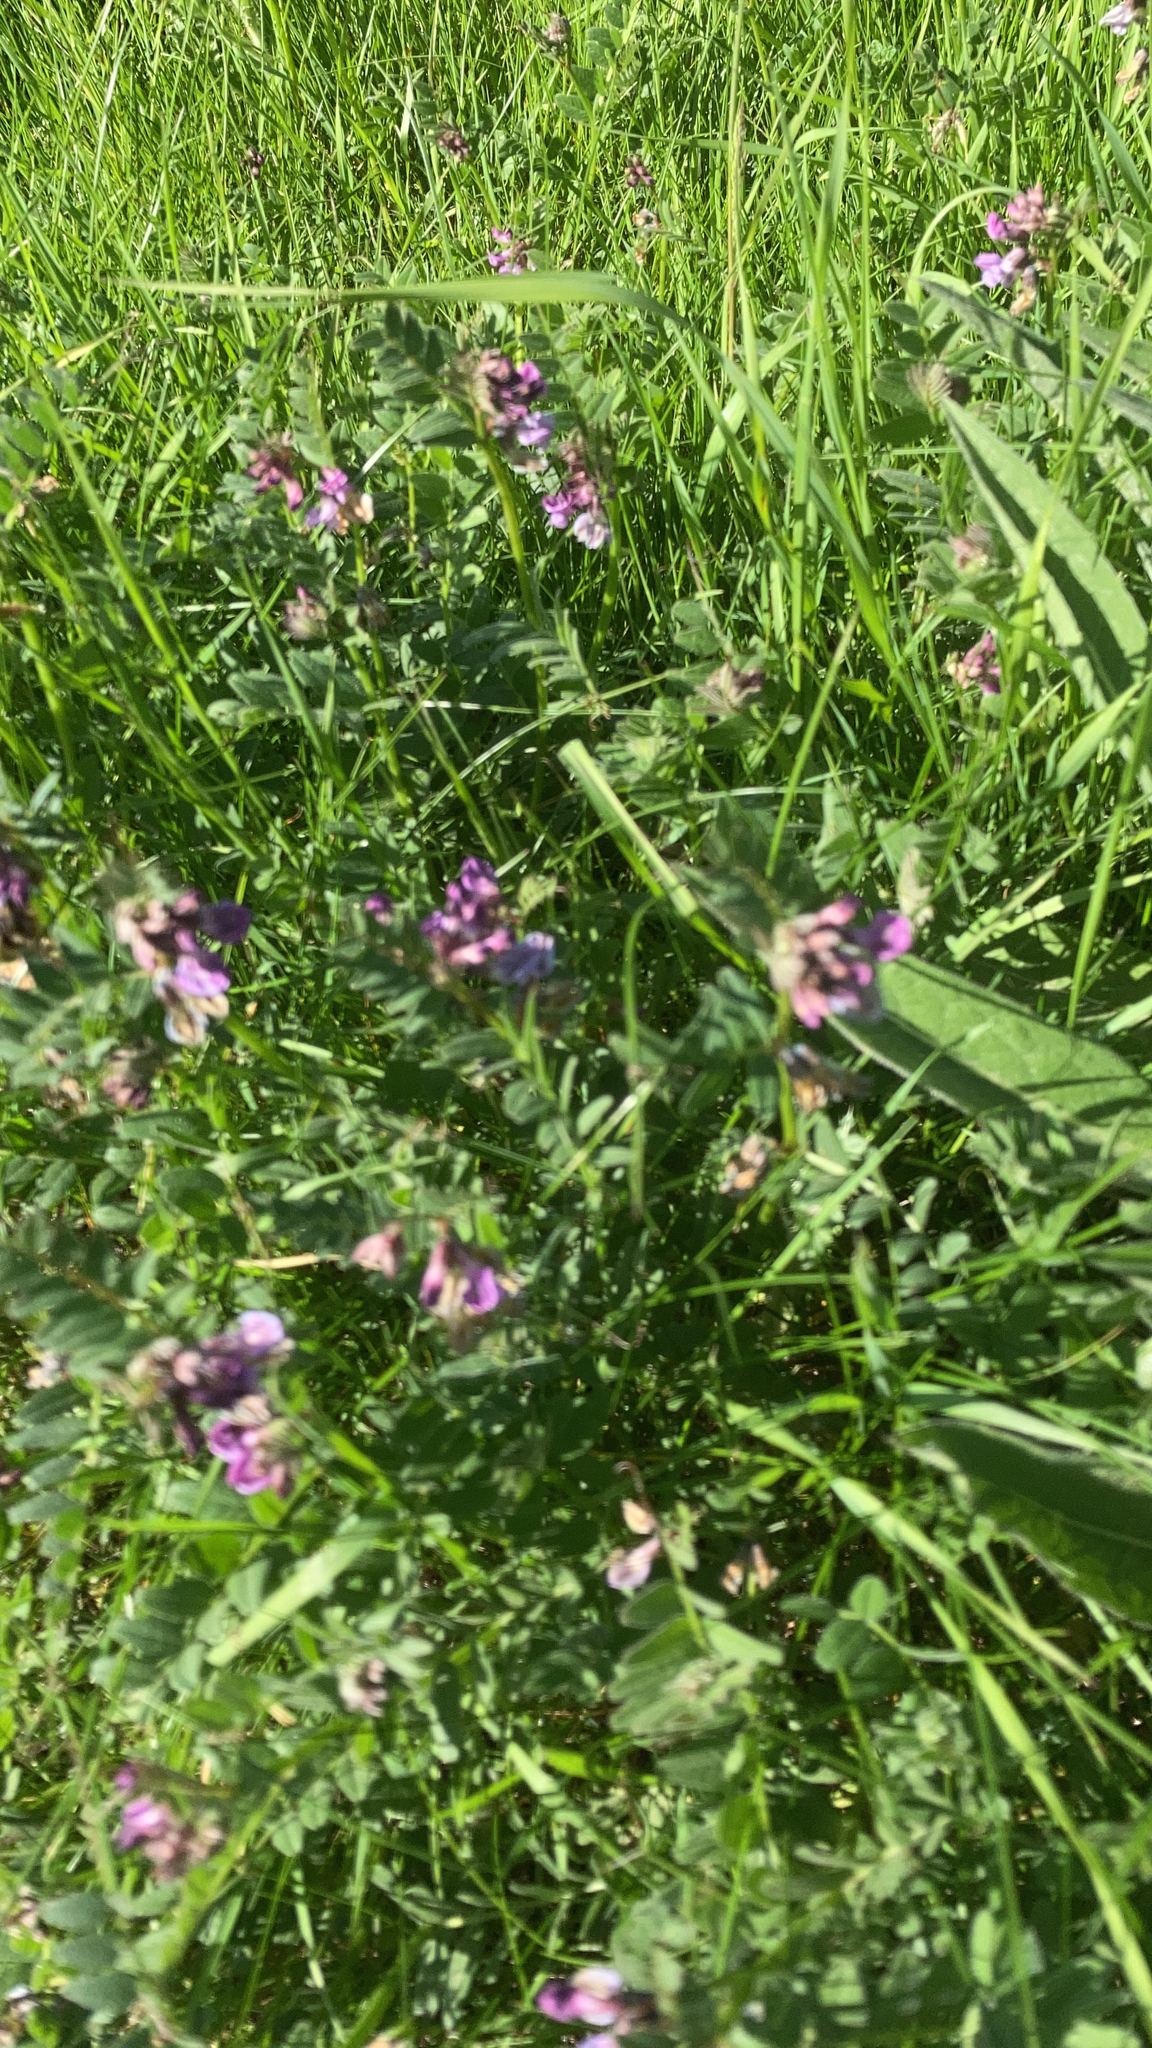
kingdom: Plantae
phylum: Tracheophyta
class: Magnoliopsida
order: Fabales
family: Fabaceae
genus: Vicia
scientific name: Vicia sepium
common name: Bush vetch
